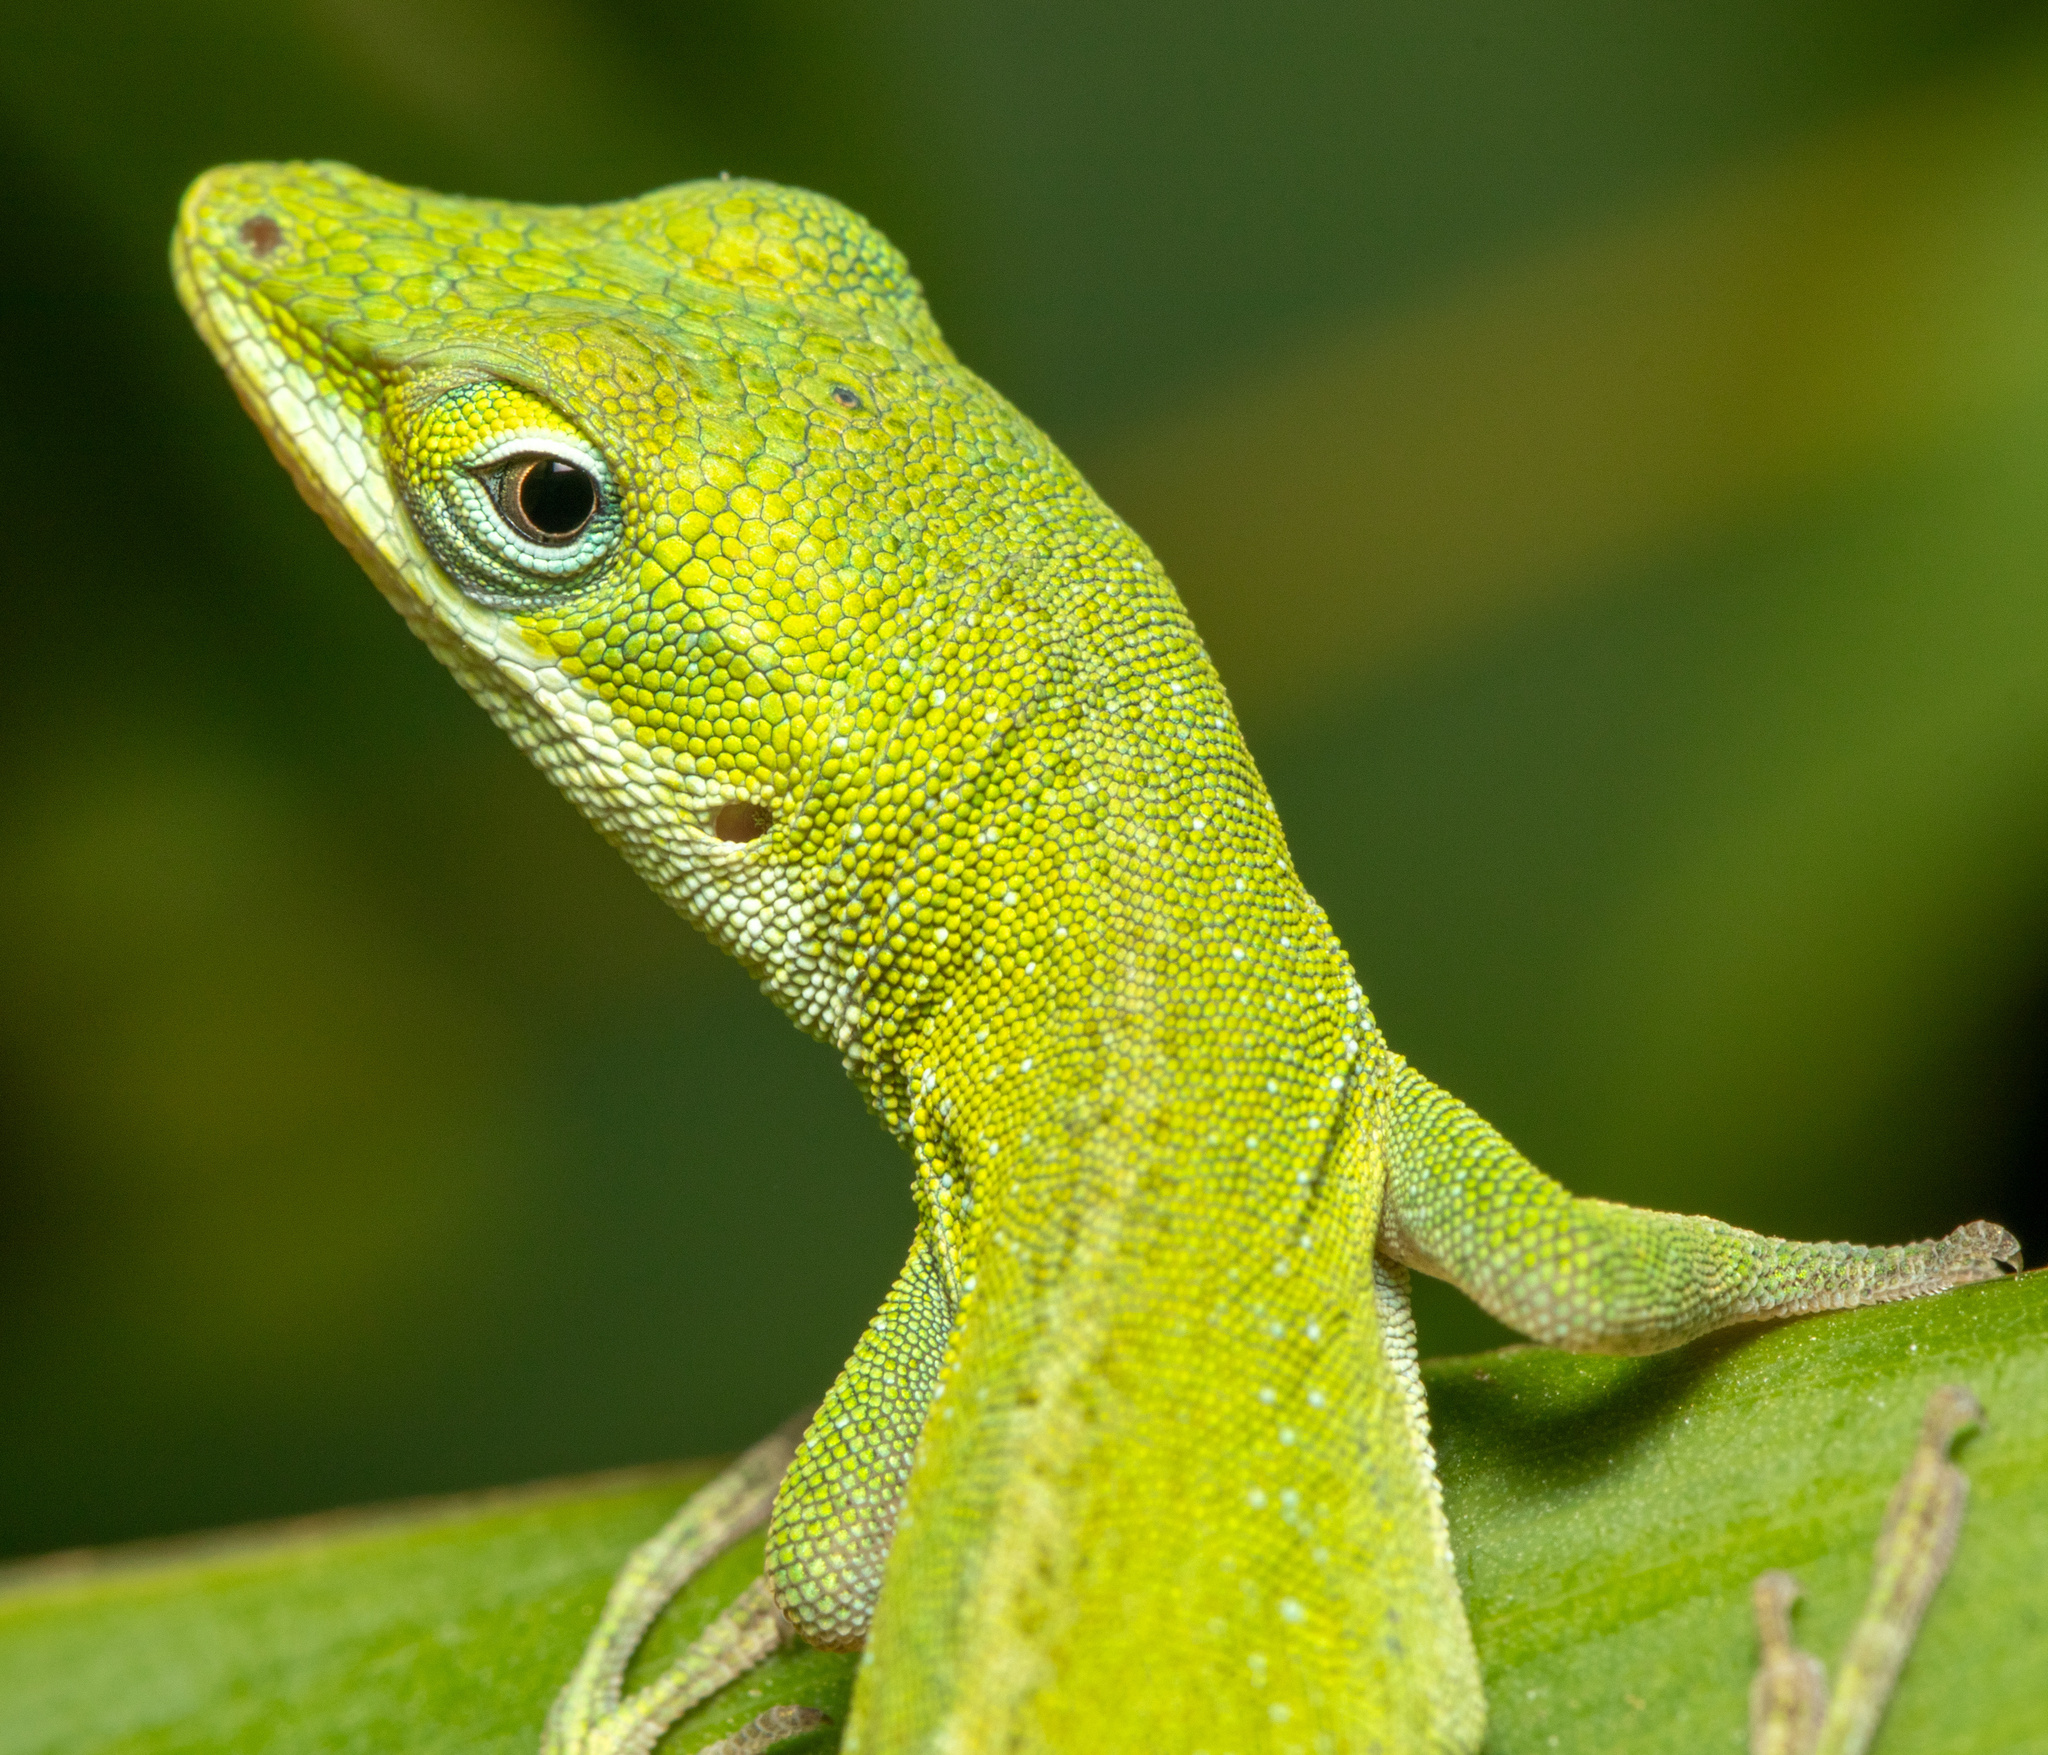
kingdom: Animalia
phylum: Chordata
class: Squamata
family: Dactyloidae
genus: Anolis
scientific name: Anolis carolinensis
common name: Green anole
